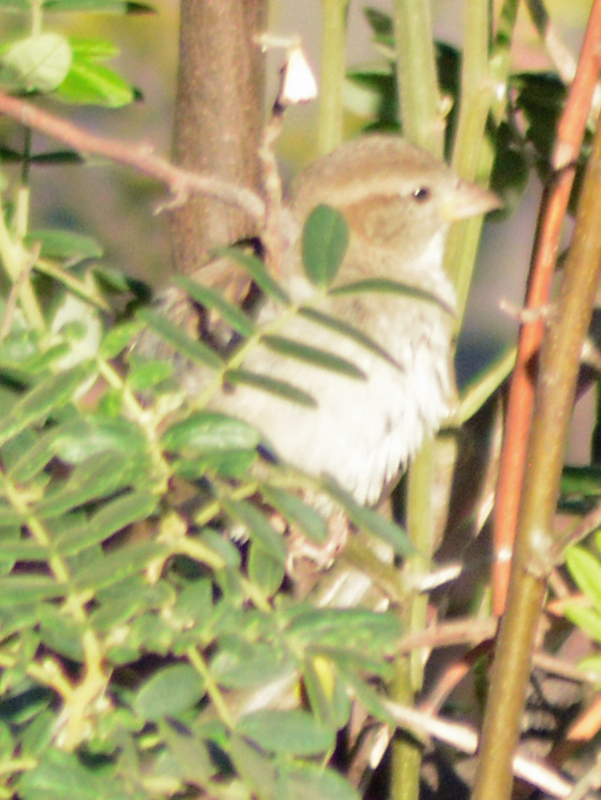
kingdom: Animalia
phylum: Chordata
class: Aves
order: Passeriformes
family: Passeridae
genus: Passer
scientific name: Passer domesticus
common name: House sparrow
